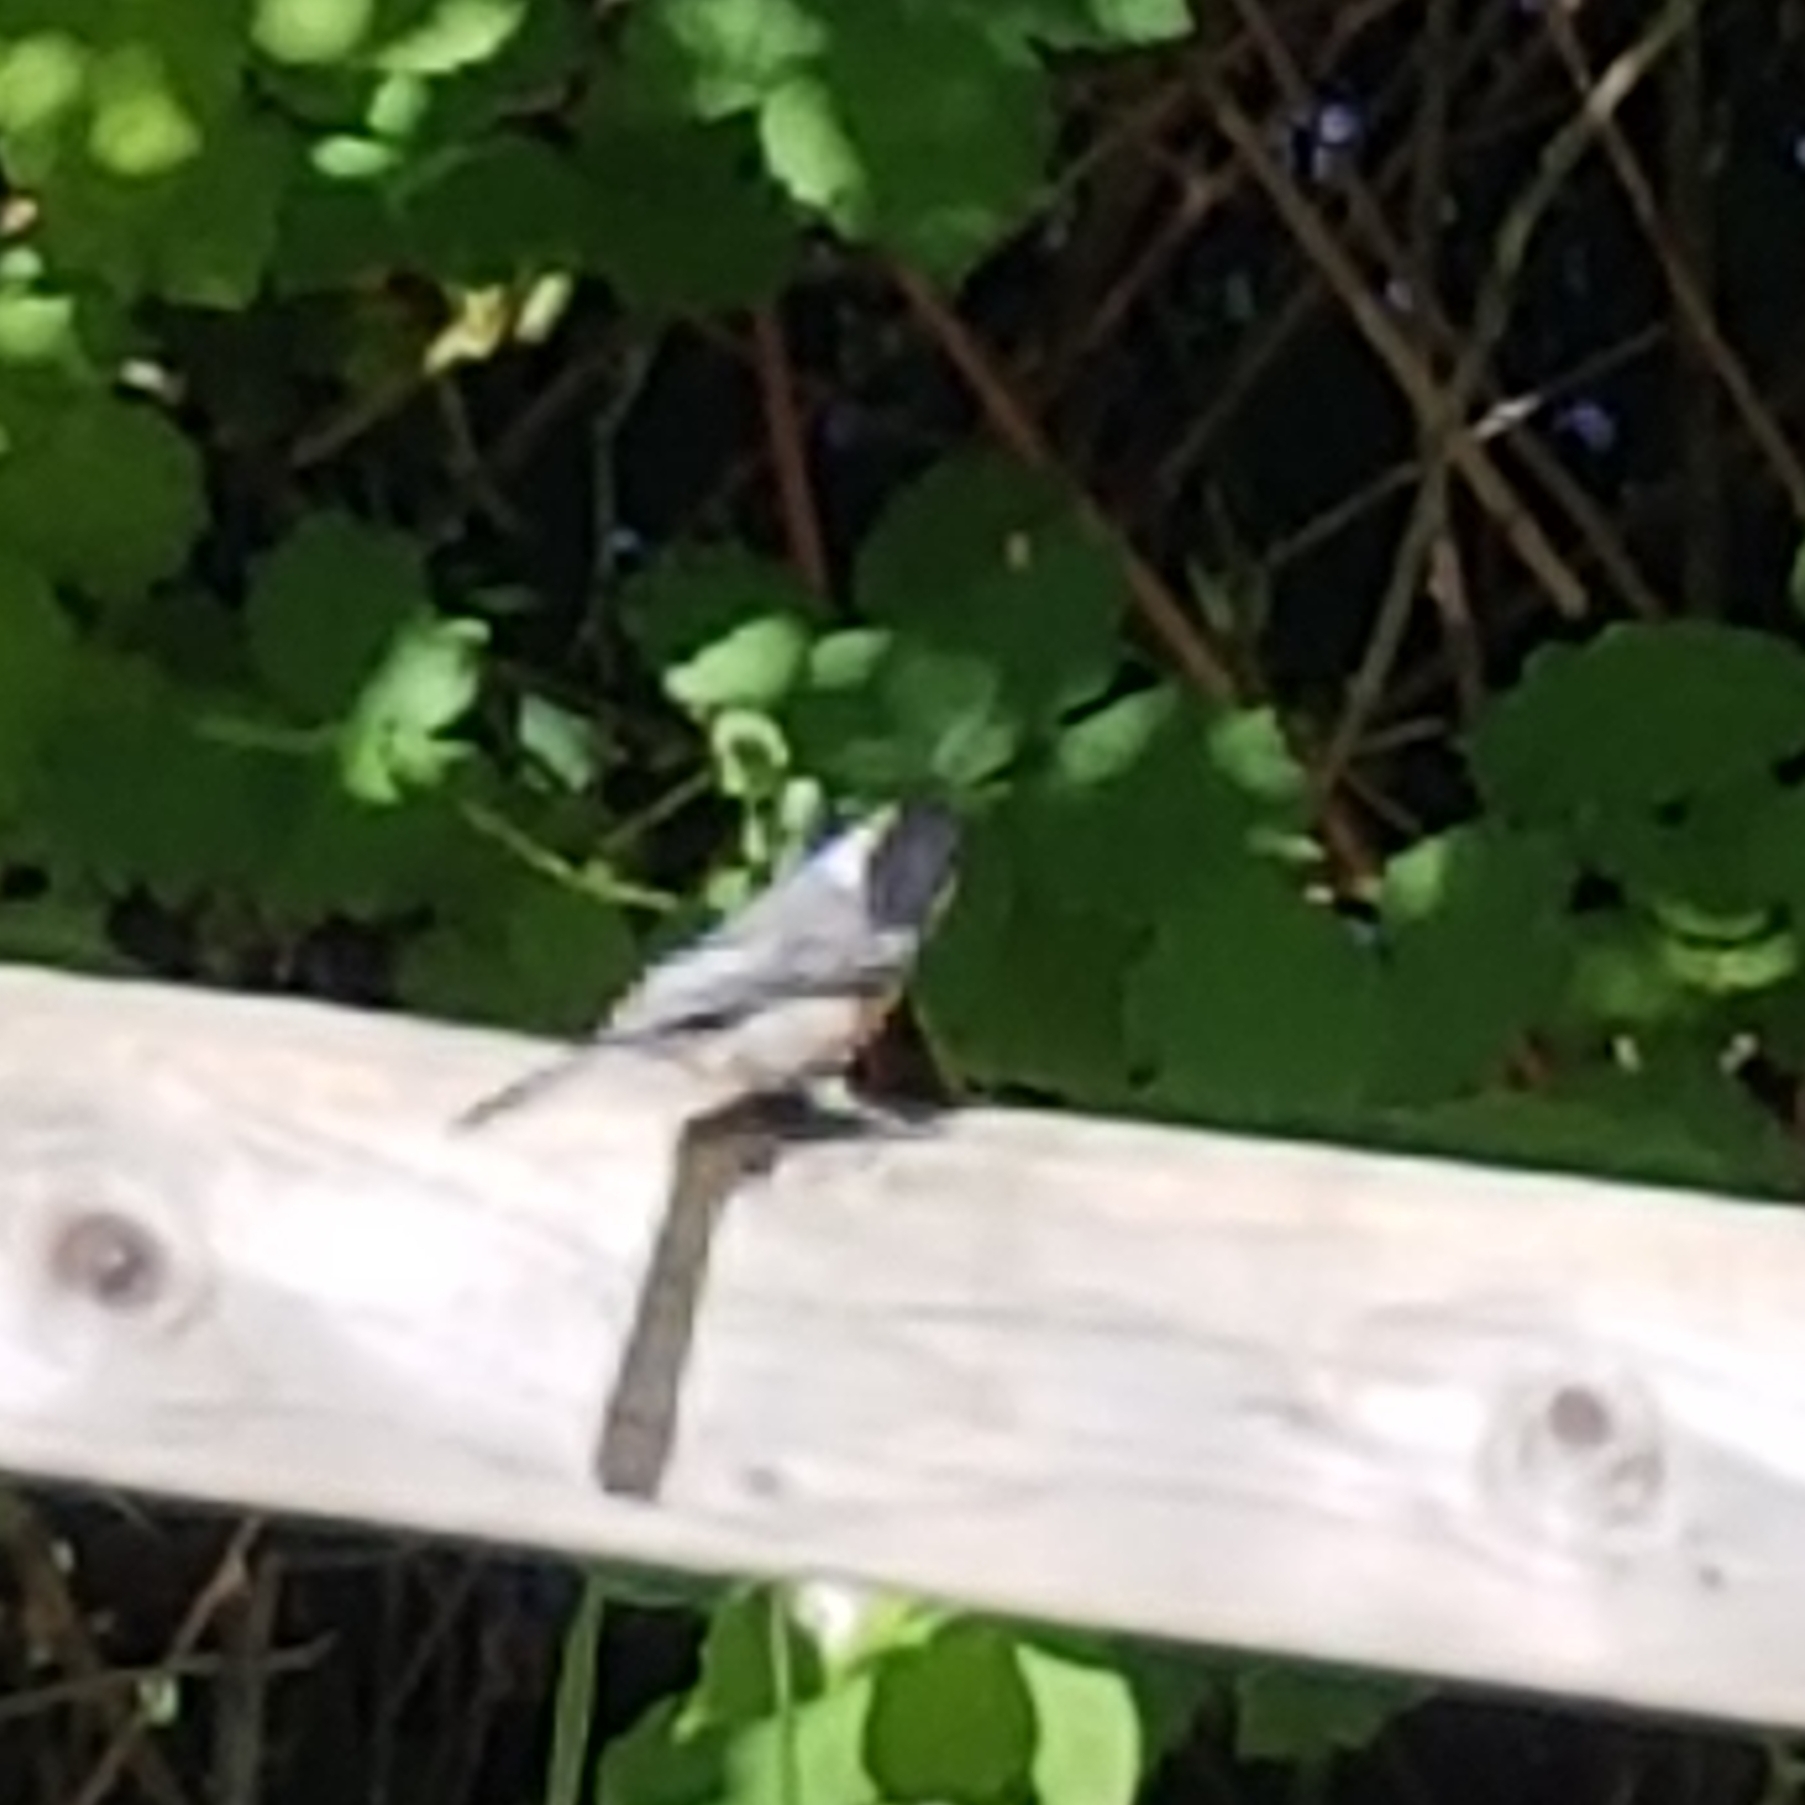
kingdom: Animalia
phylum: Chordata
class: Aves
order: Passeriformes
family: Paridae
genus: Poecile
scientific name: Poecile atricapillus
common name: Black-capped chickadee
